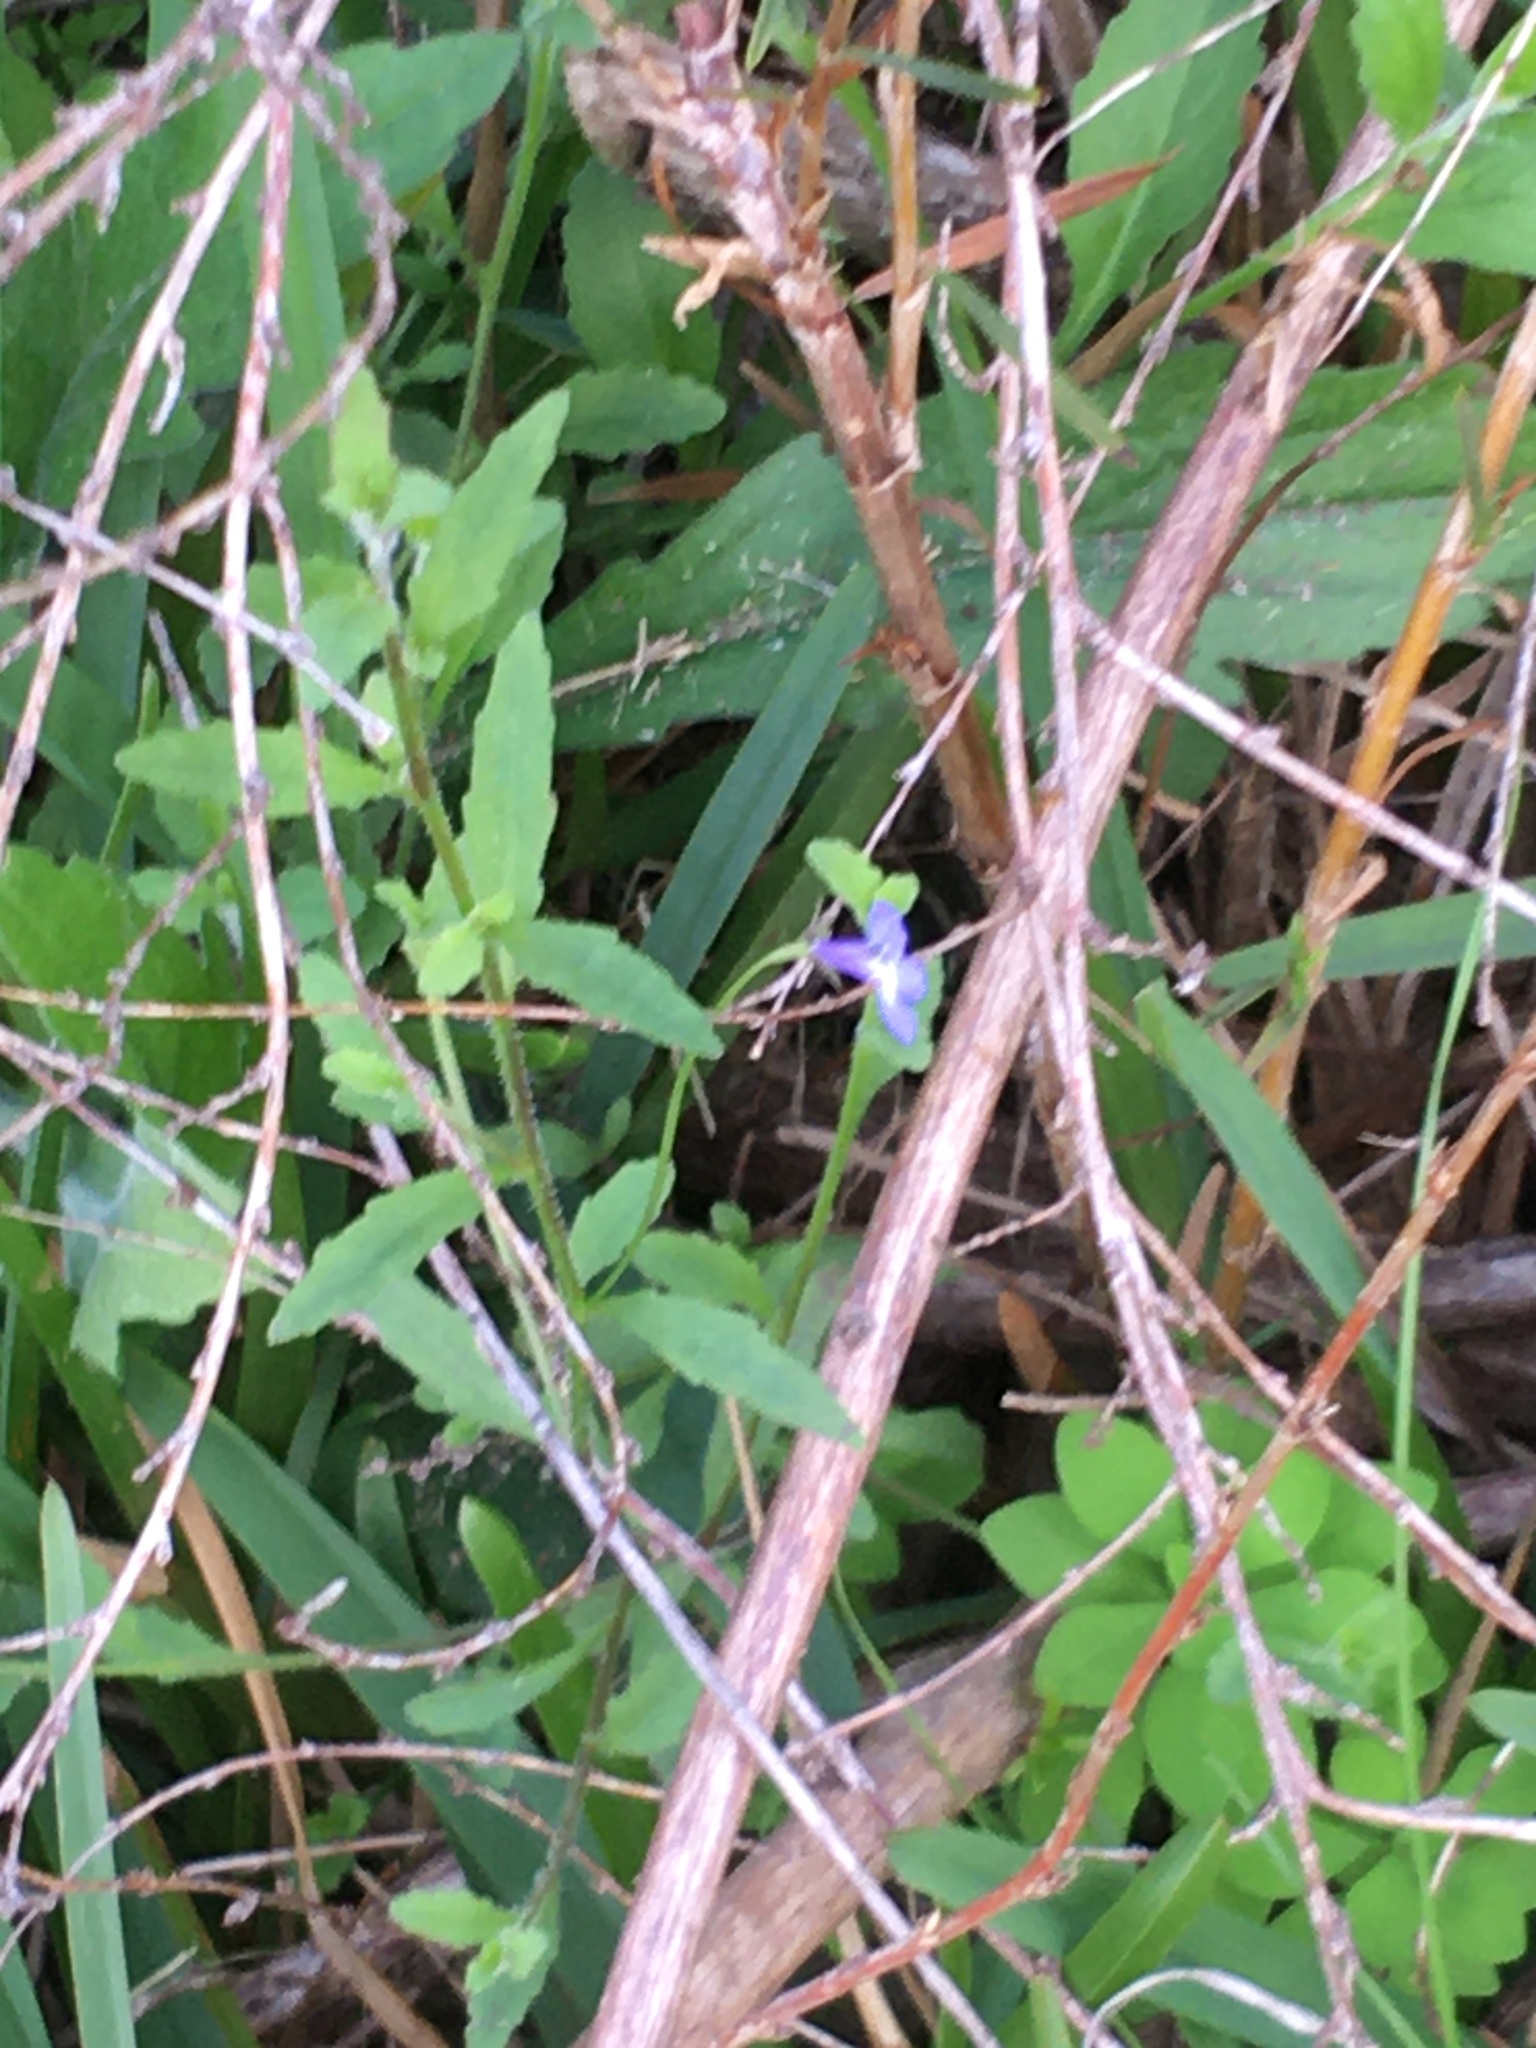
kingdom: Plantae
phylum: Tracheophyta
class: Magnoliopsida
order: Asterales
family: Campanulaceae
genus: Lobelia
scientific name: Lobelia erinus
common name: Edging lobelia
